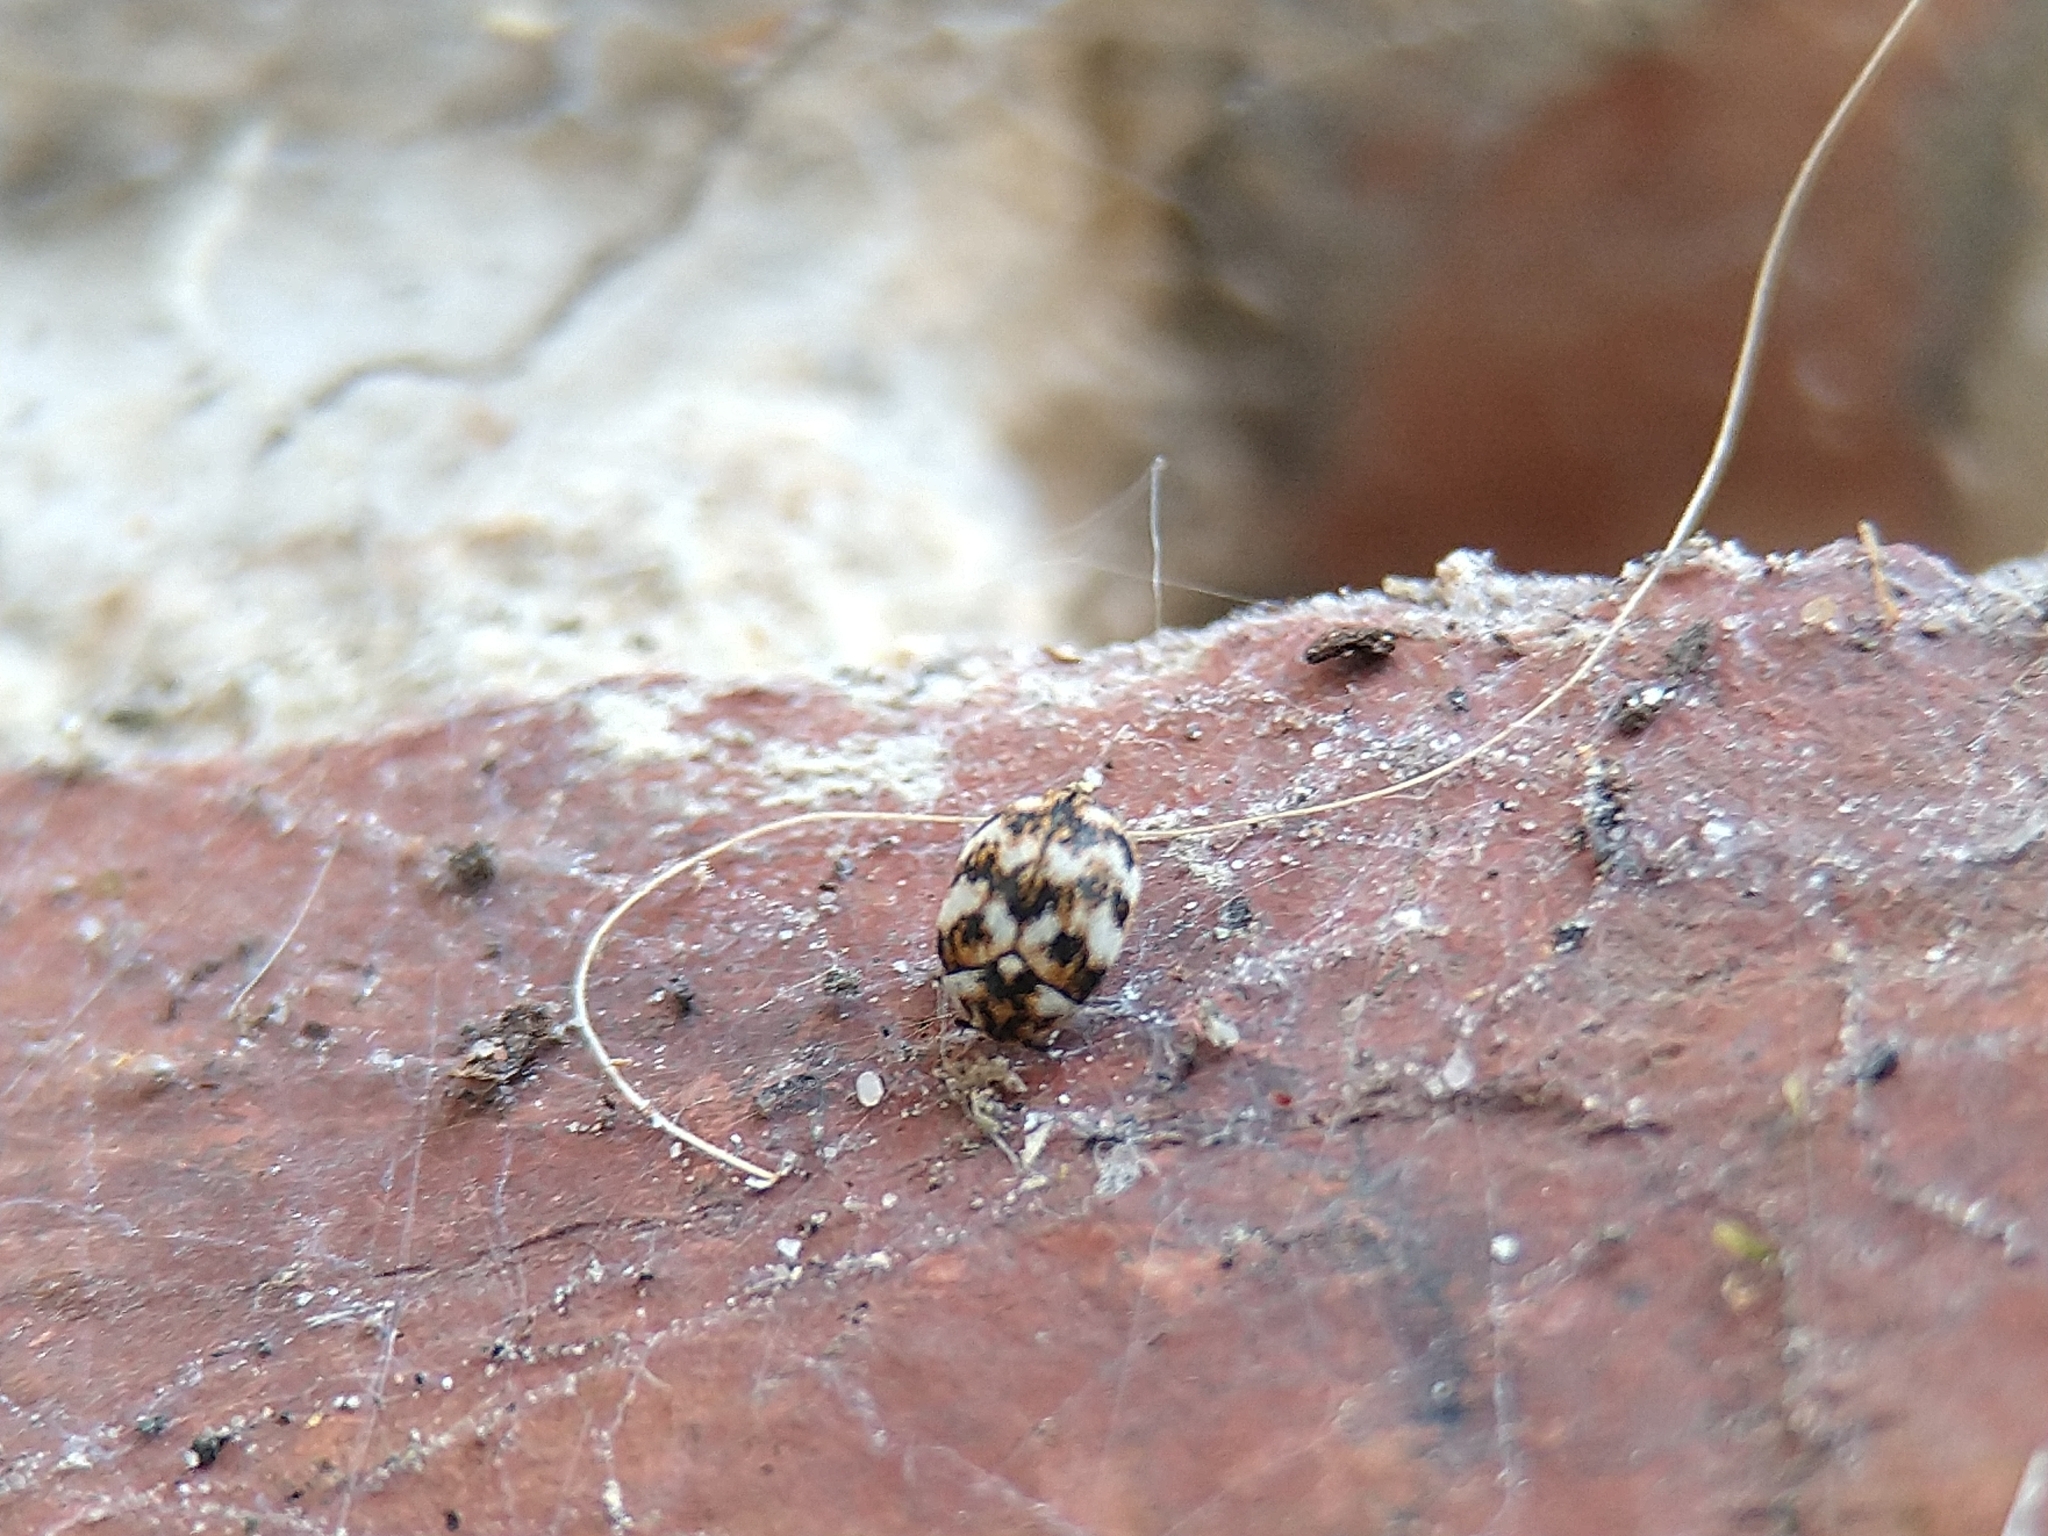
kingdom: Animalia
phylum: Arthropoda
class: Insecta
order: Coleoptera
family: Dermestidae
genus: Anthrenus
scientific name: Anthrenus verbasci
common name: Varied carpet beetle
